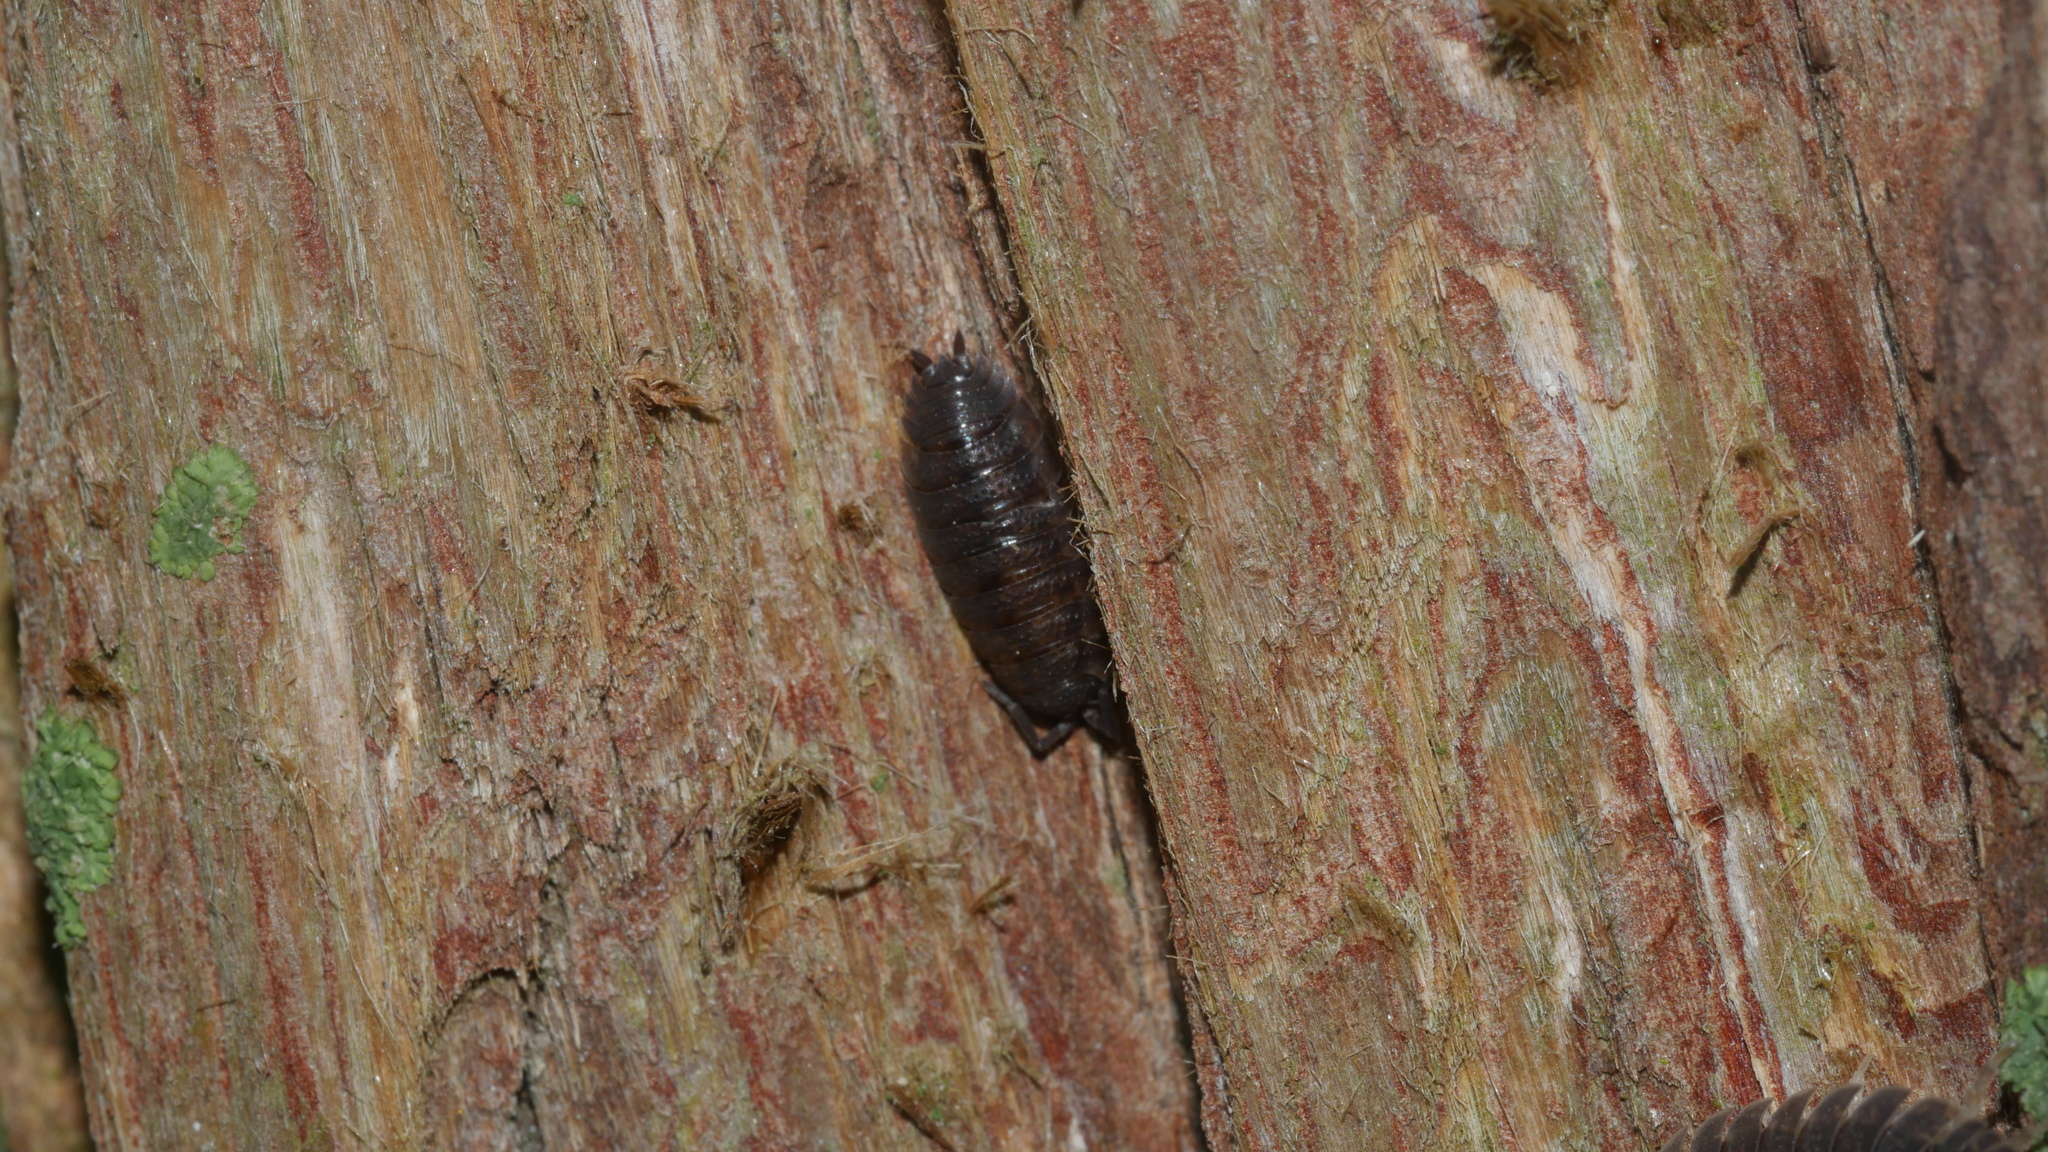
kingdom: Animalia
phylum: Arthropoda
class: Malacostraca
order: Isopoda
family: Porcellionidae
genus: Porcellio
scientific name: Porcellio scaber
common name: Common rough woodlouse
